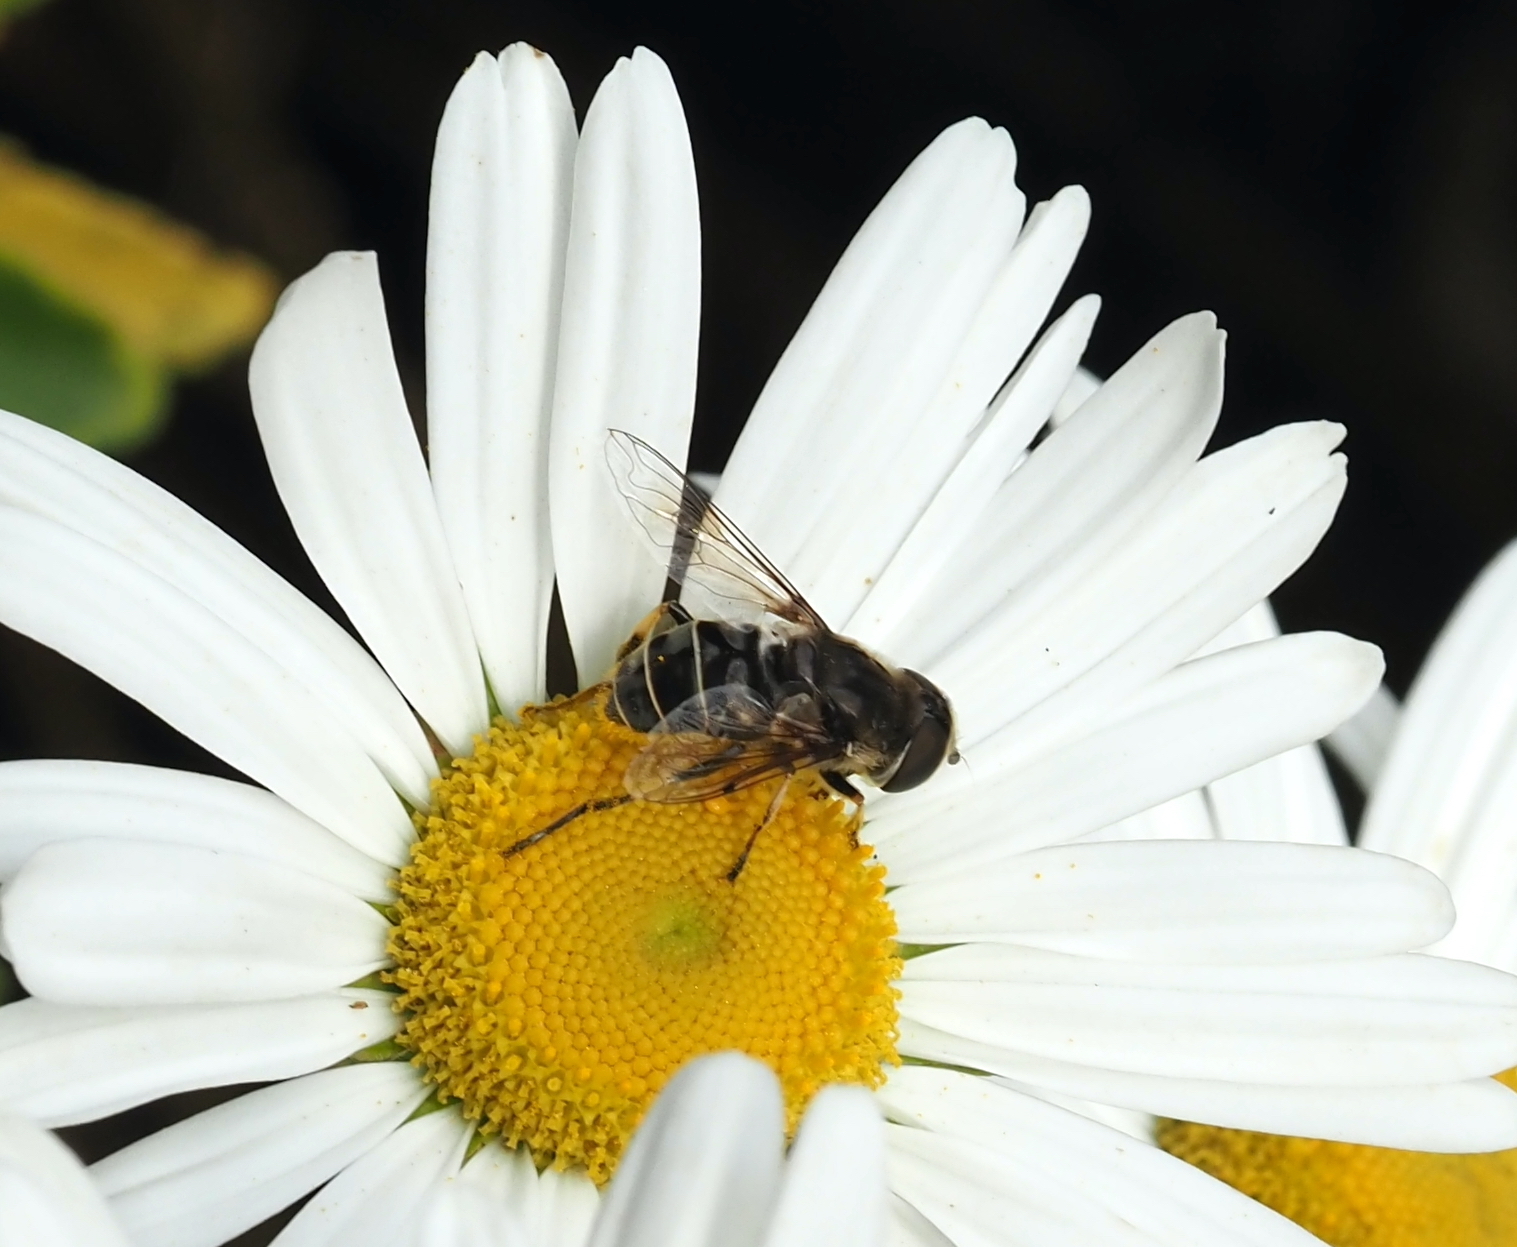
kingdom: Animalia
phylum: Arthropoda
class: Insecta
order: Diptera
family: Syrphidae
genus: Eristalis
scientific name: Eristalis dimidiata
